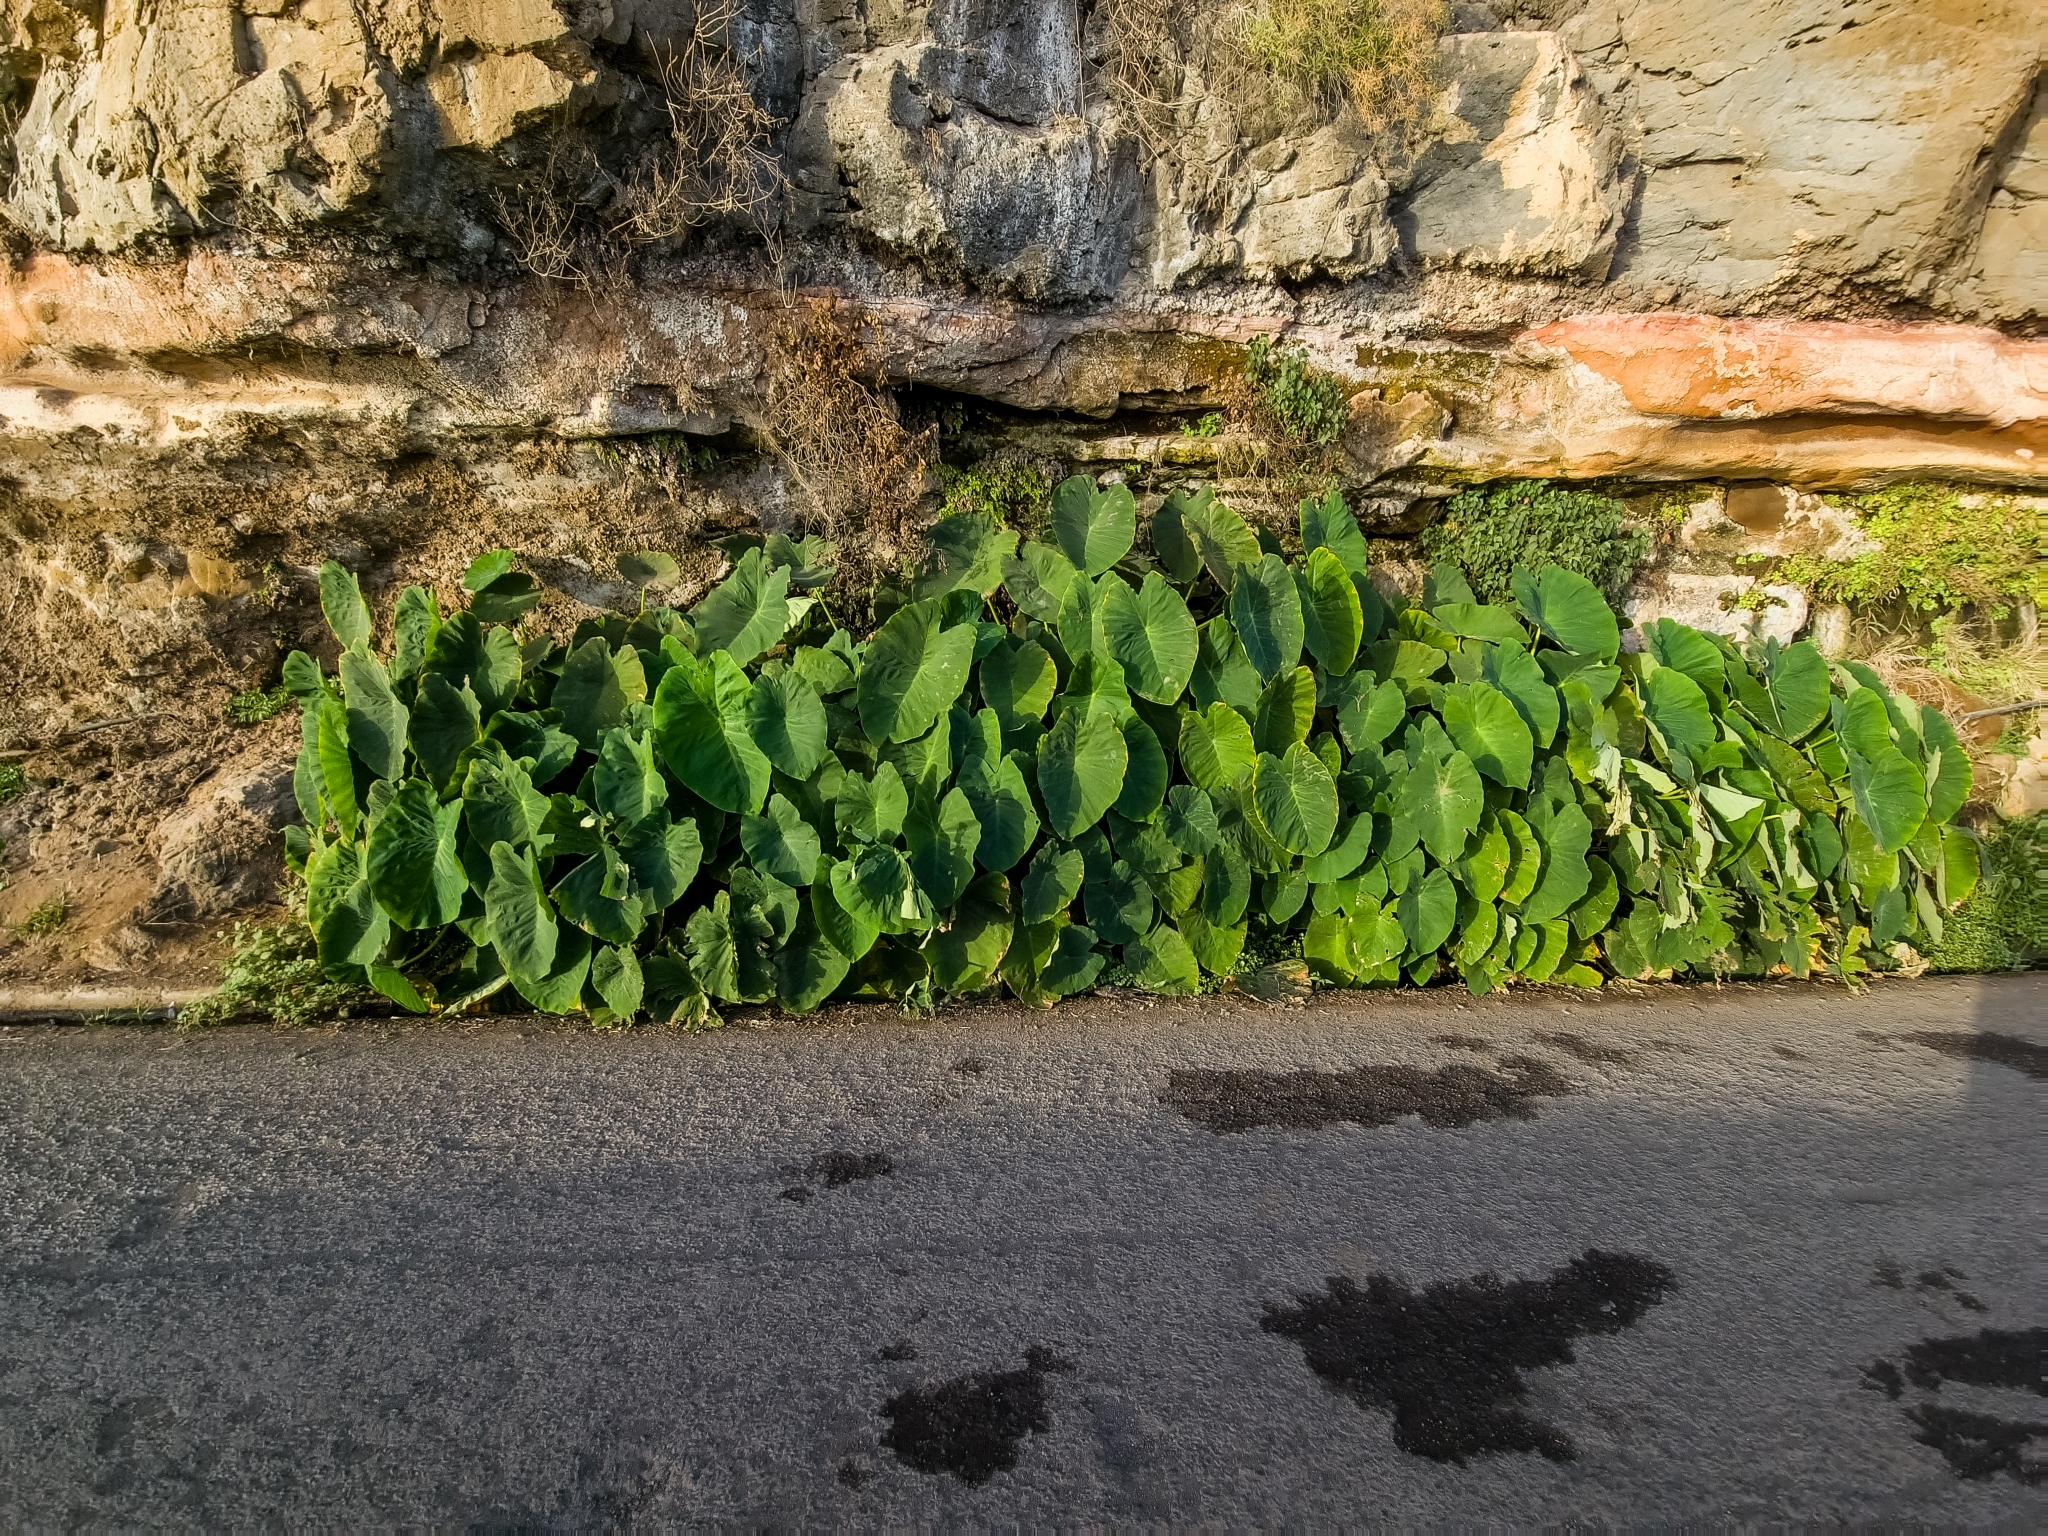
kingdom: Plantae
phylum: Tracheophyta
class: Liliopsida
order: Alismatales
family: Araceae
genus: Colocasia
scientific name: Colocasia esculenta
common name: Taro
